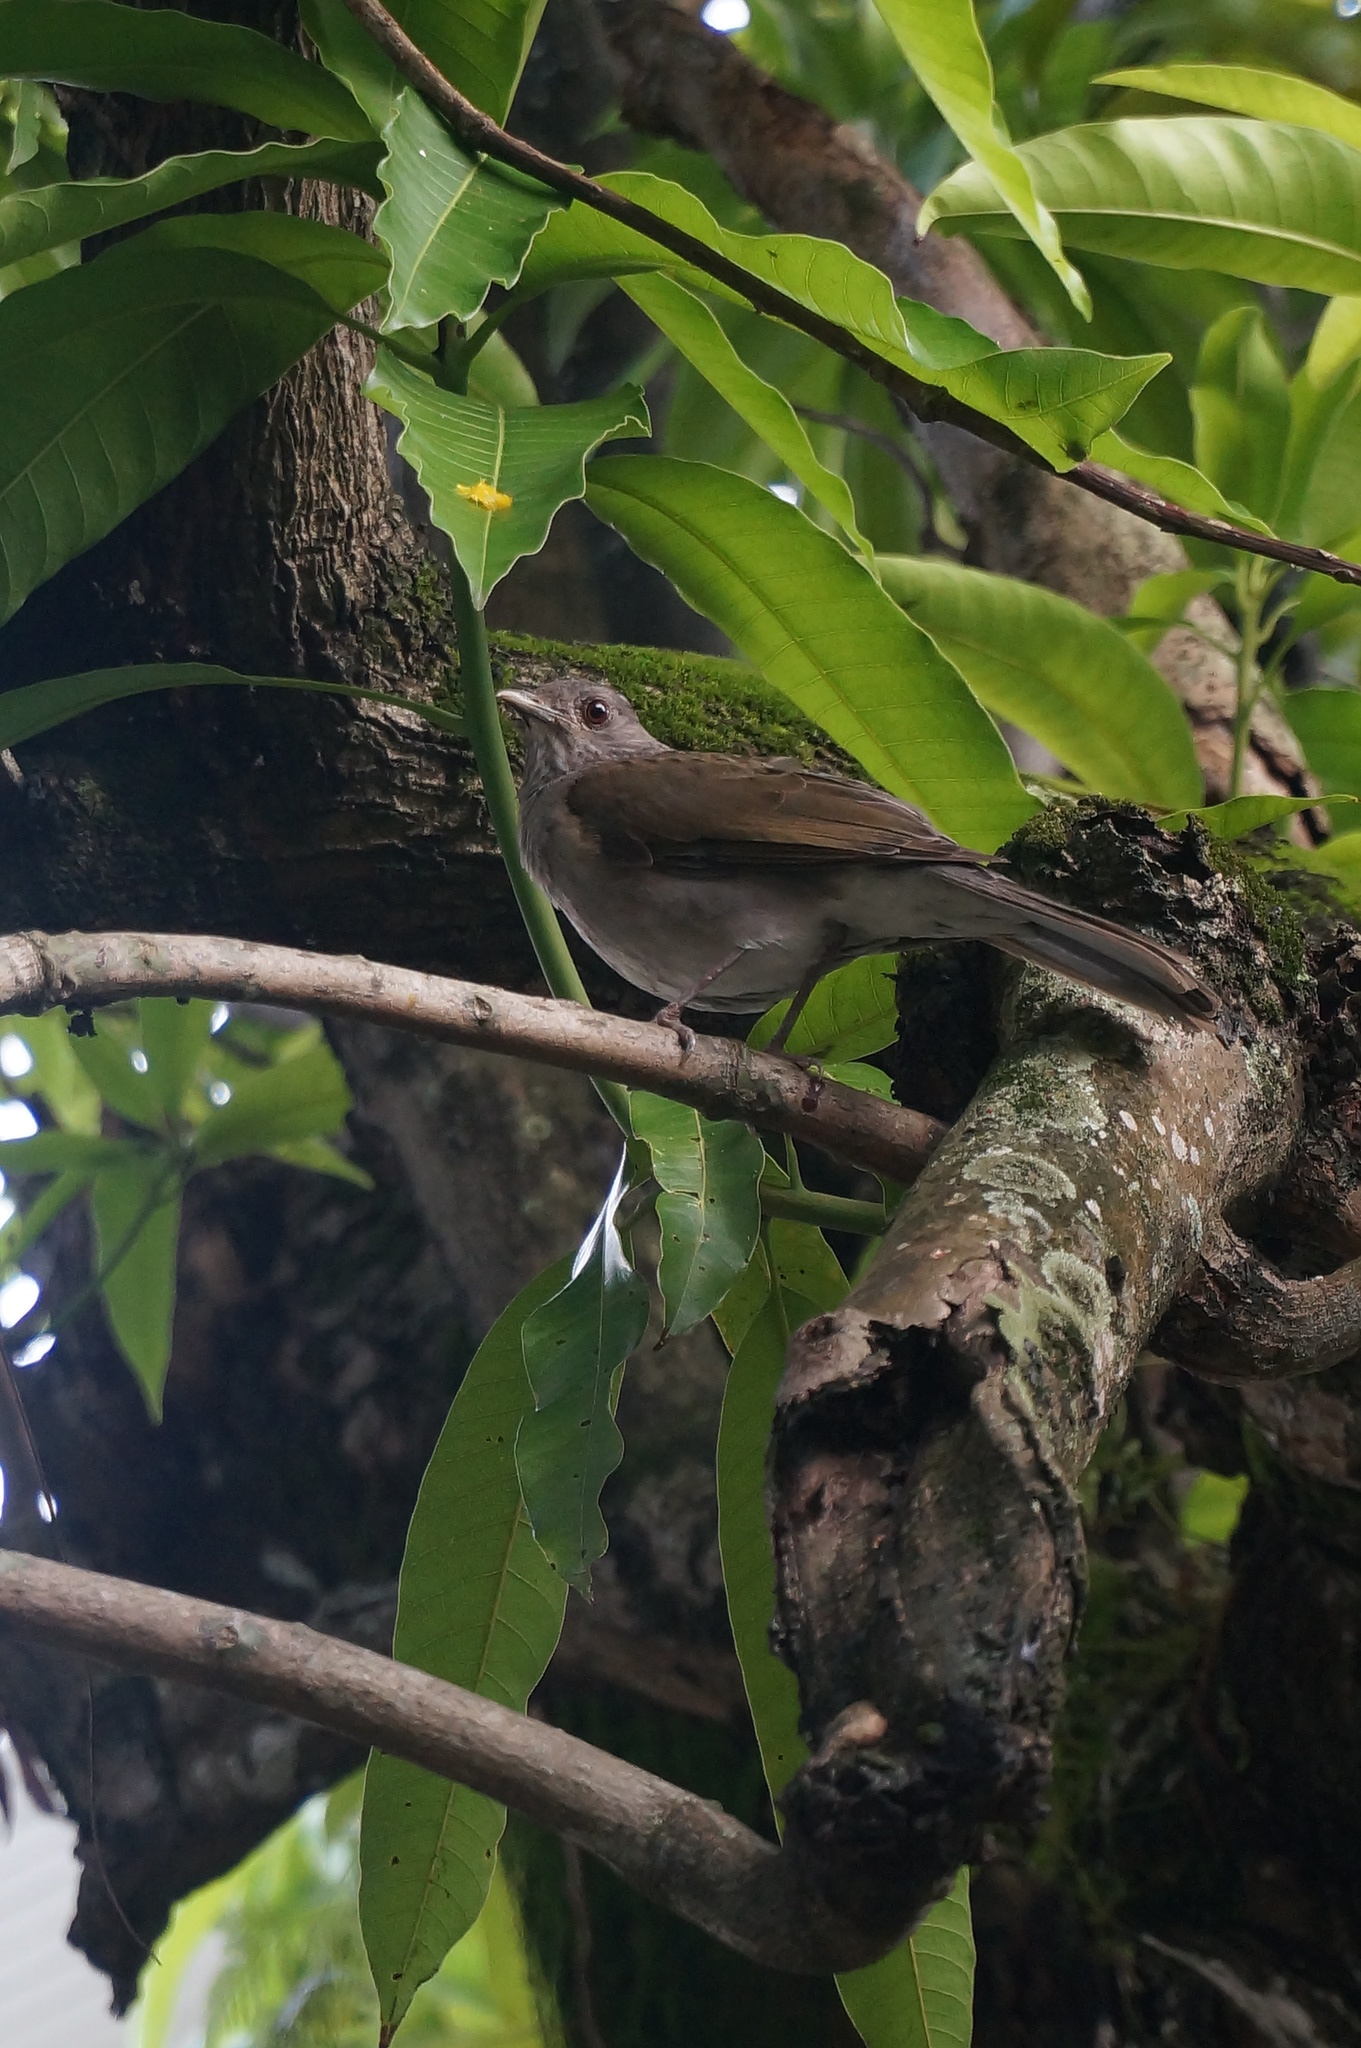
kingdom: Animalia
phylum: Chordata
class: Aves
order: Passeriformes
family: Turdidae
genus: Turdus
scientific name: Turdus leucomelas
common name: Pale-breasted thrush
